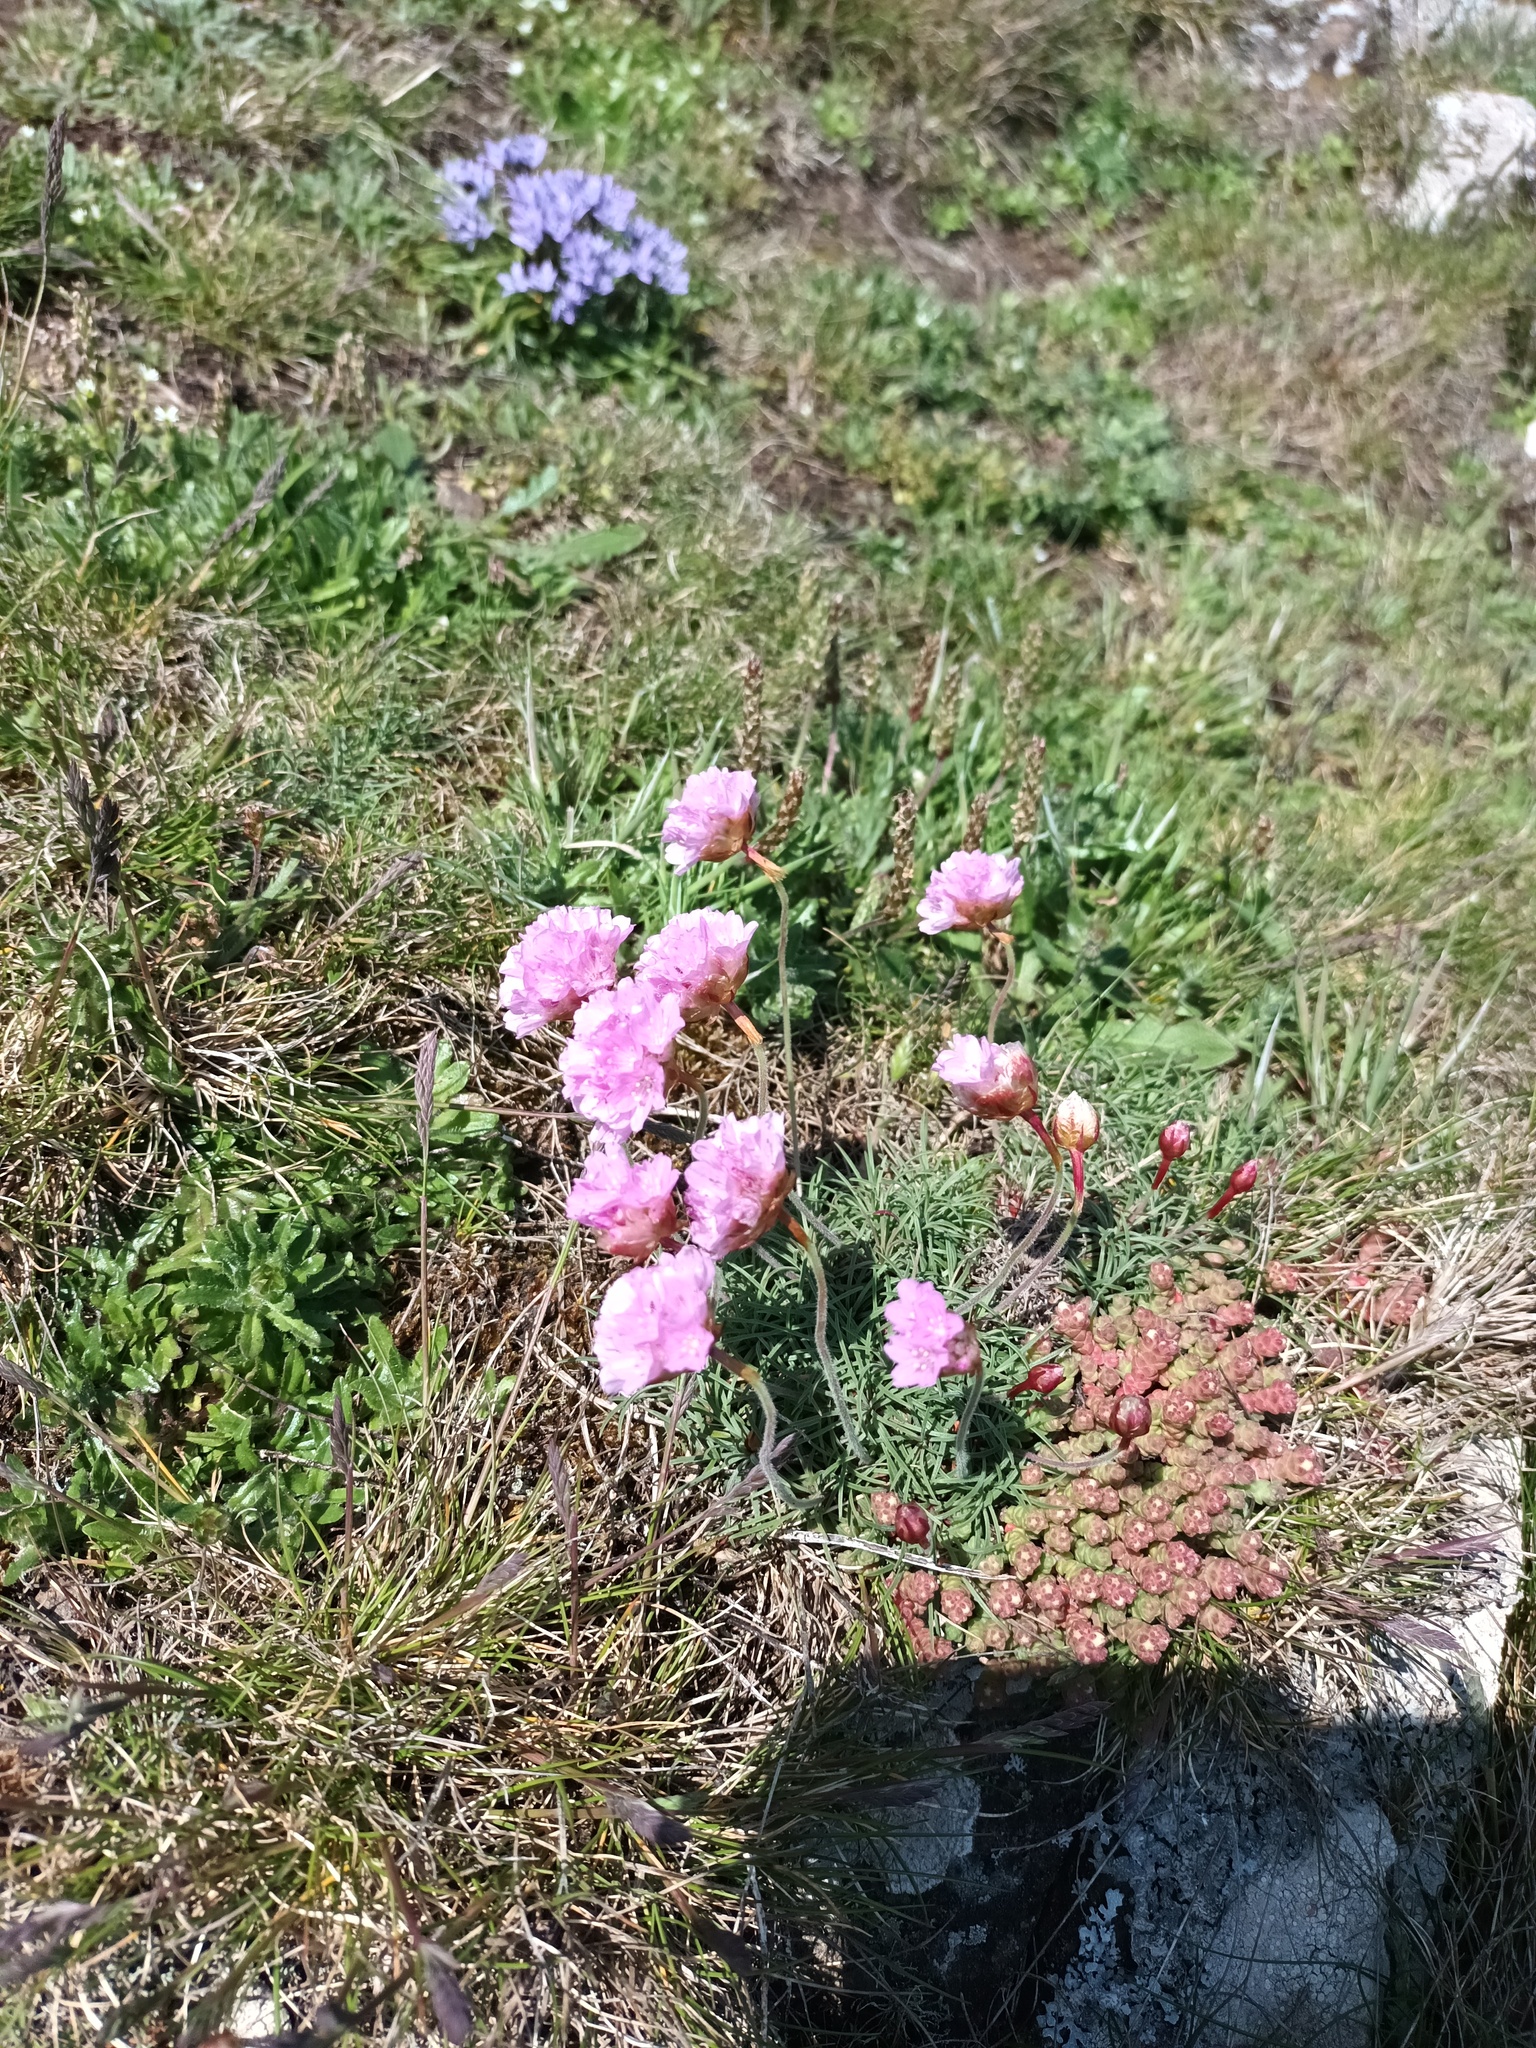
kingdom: Plantae
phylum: Tracheophyta
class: Magnoliopsida
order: Caryophyllales
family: Plumbaginaceae
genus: Armeria
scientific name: Armeria maritima
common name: Thrift
